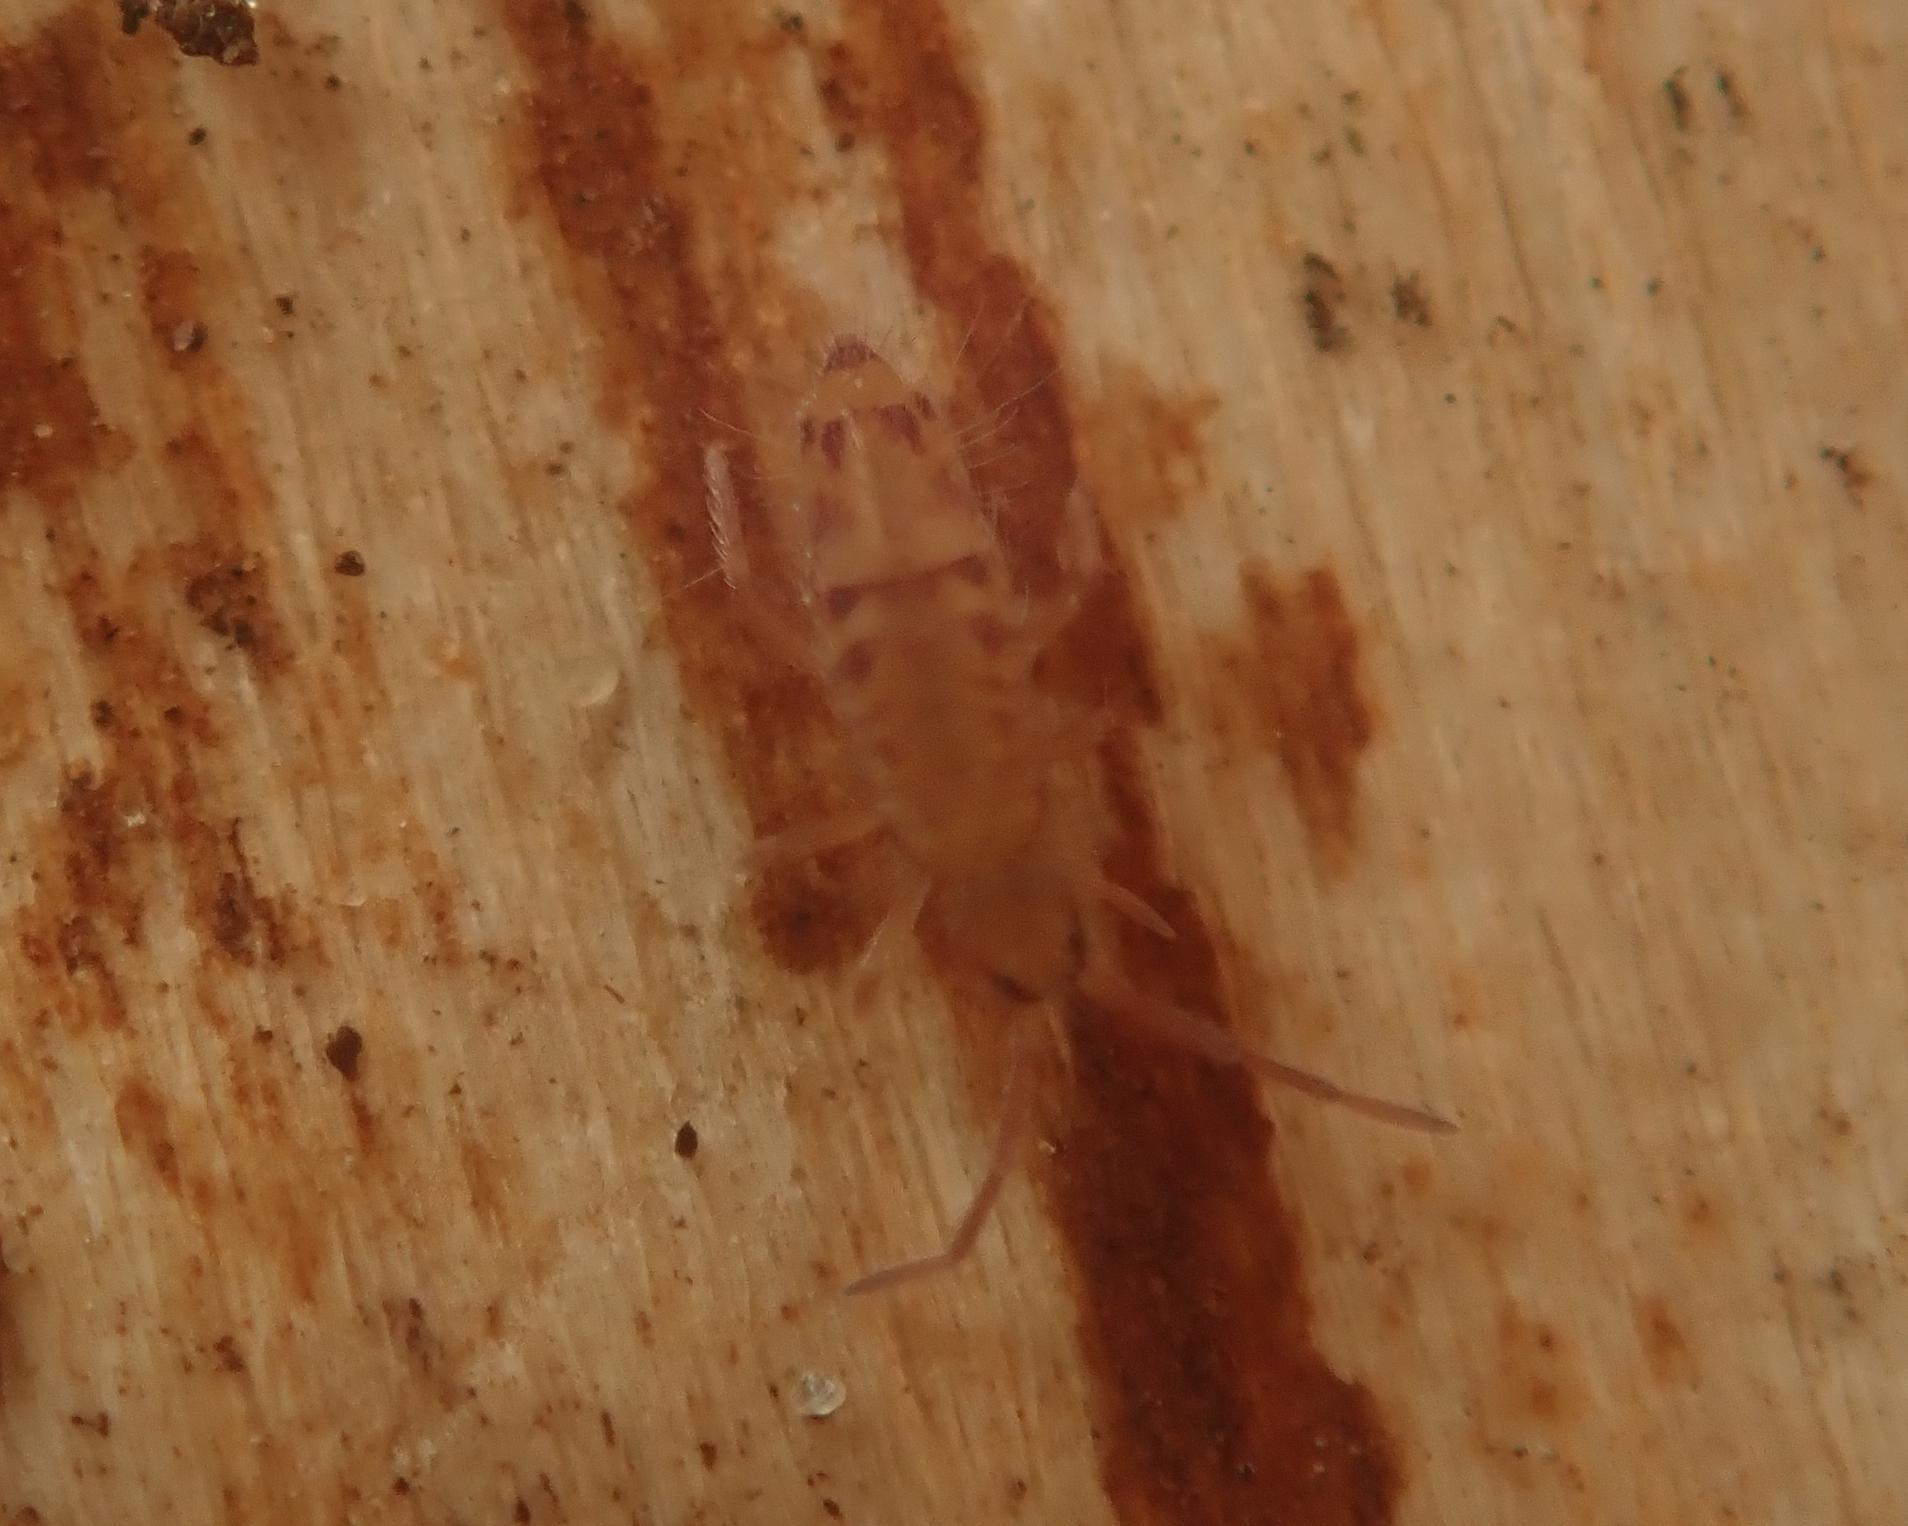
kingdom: Animalia
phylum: Arthropoda
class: Collembola
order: Entomobryomorpha
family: Entomobryidae
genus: Entomobrya
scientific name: Entomobrya multifasciata
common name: Springtail
